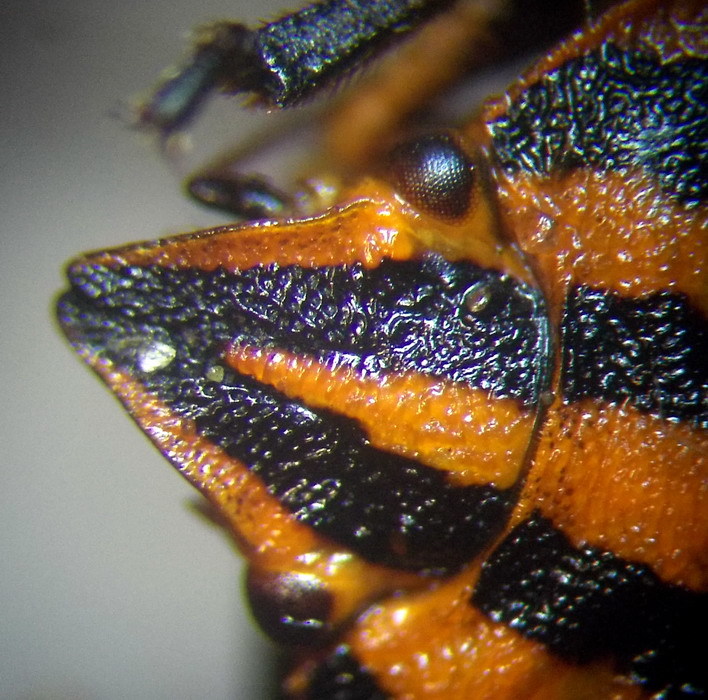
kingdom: Animalia
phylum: Arthropoda
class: Insecta
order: Hemiptera
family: Pentatomidae
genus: Graphosoma
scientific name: Graphosoma italicum
